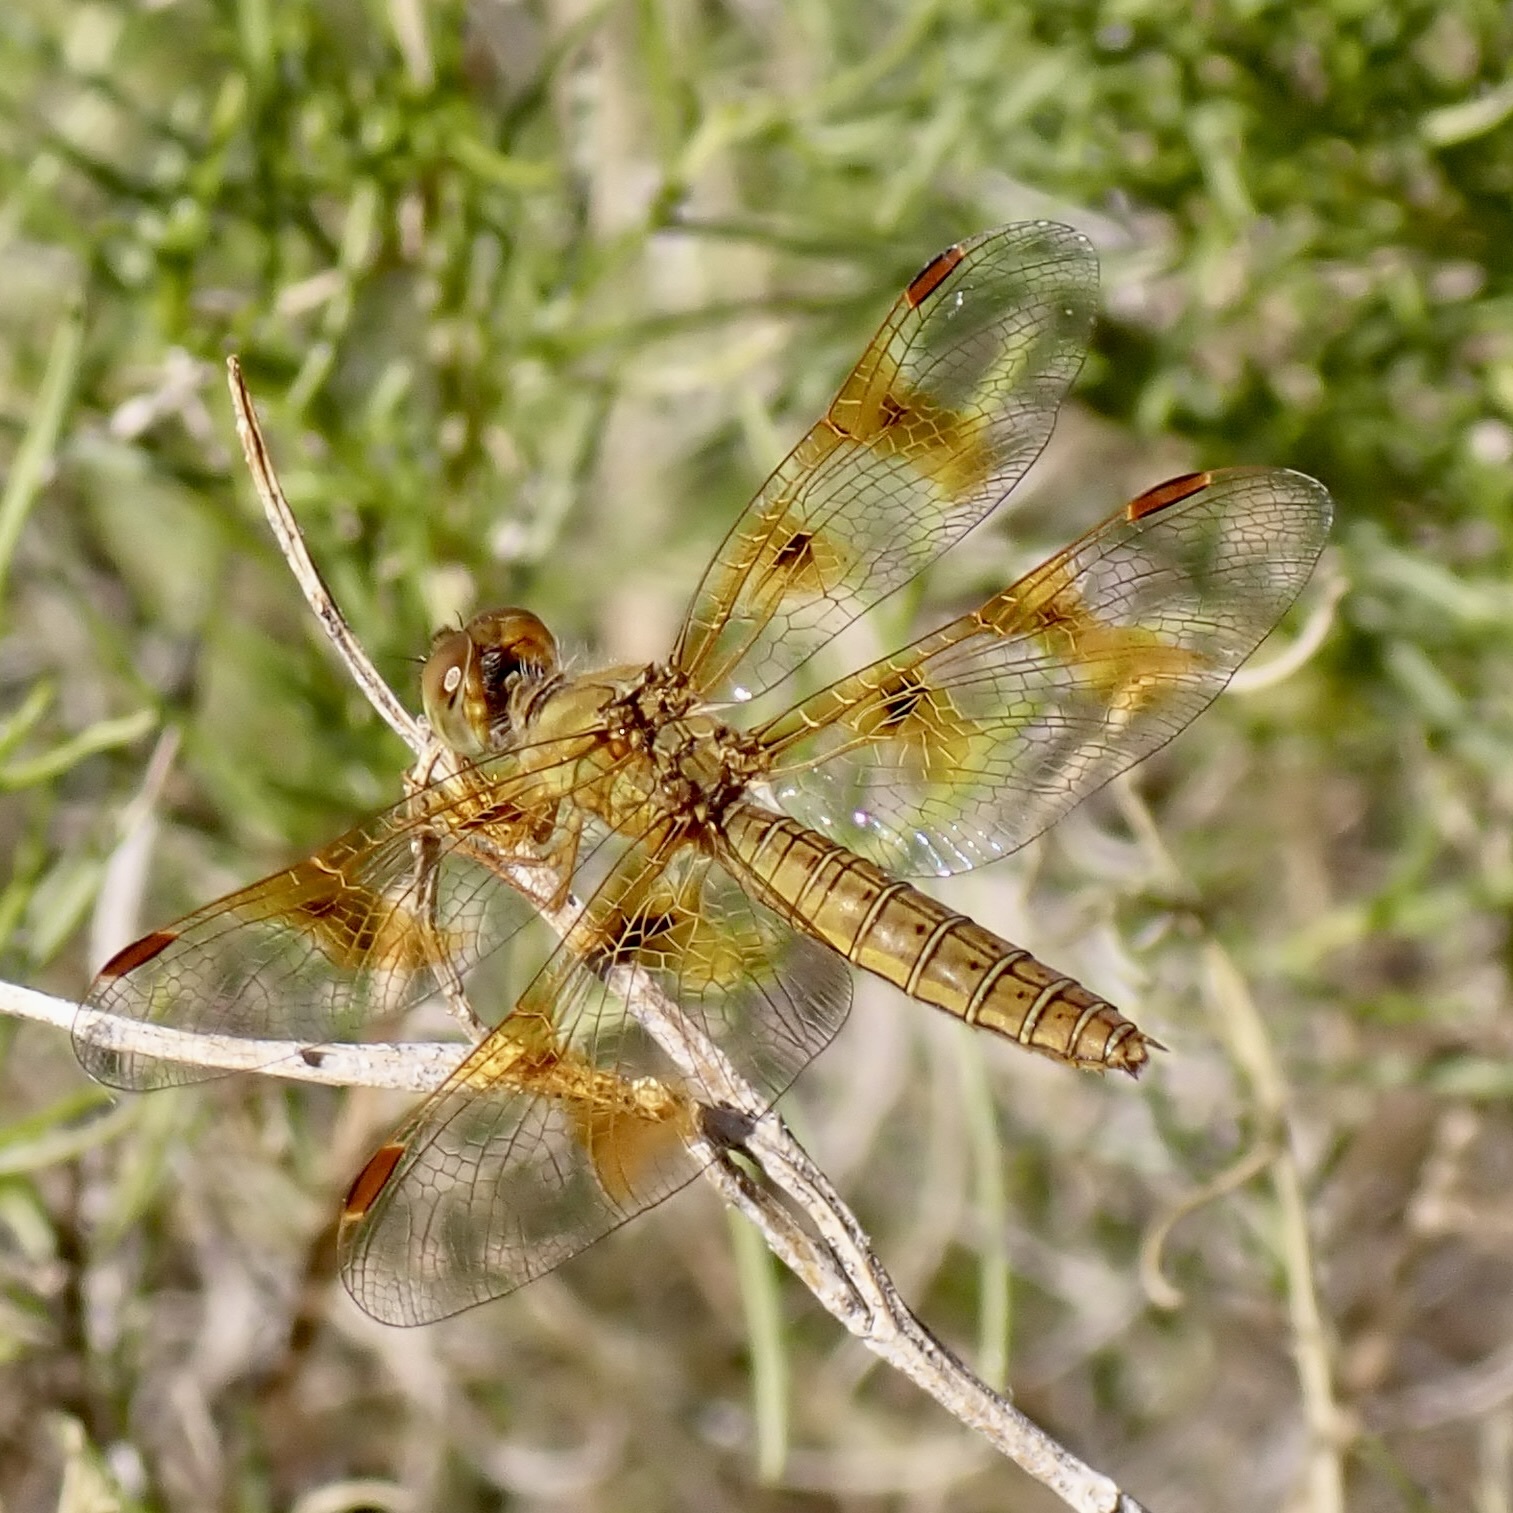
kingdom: Animalia
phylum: Arthropoda
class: Insecta
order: Odonata
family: Libellulidae
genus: Perithemis
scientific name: Perithemis intensa
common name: Mexican amberwing
